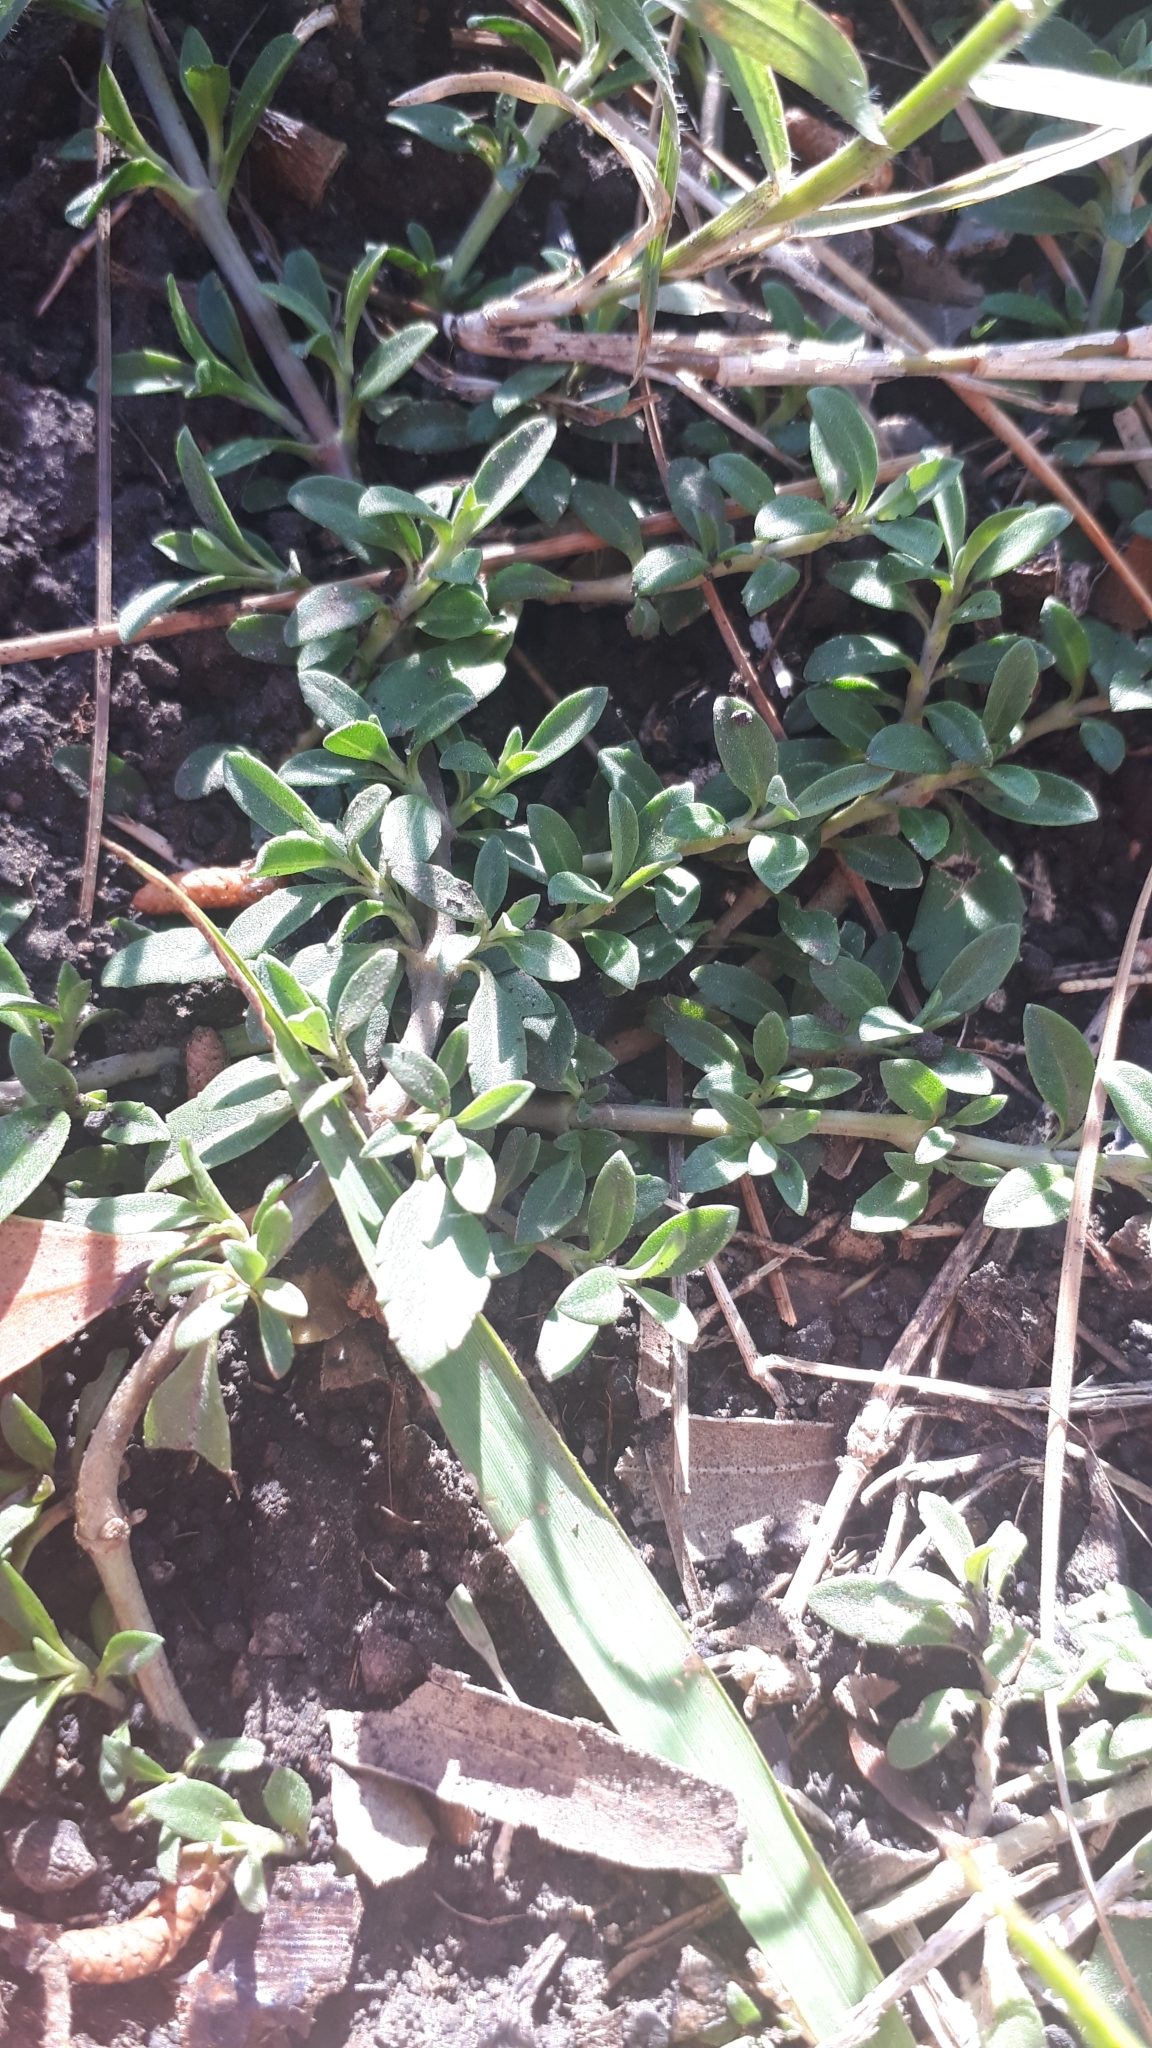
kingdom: Plantae
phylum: Tracheophyta
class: Magnoliopsida
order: Lamiales
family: Verbenaceae
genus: Phyla
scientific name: Phyla nodiflora
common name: Frogfruit
